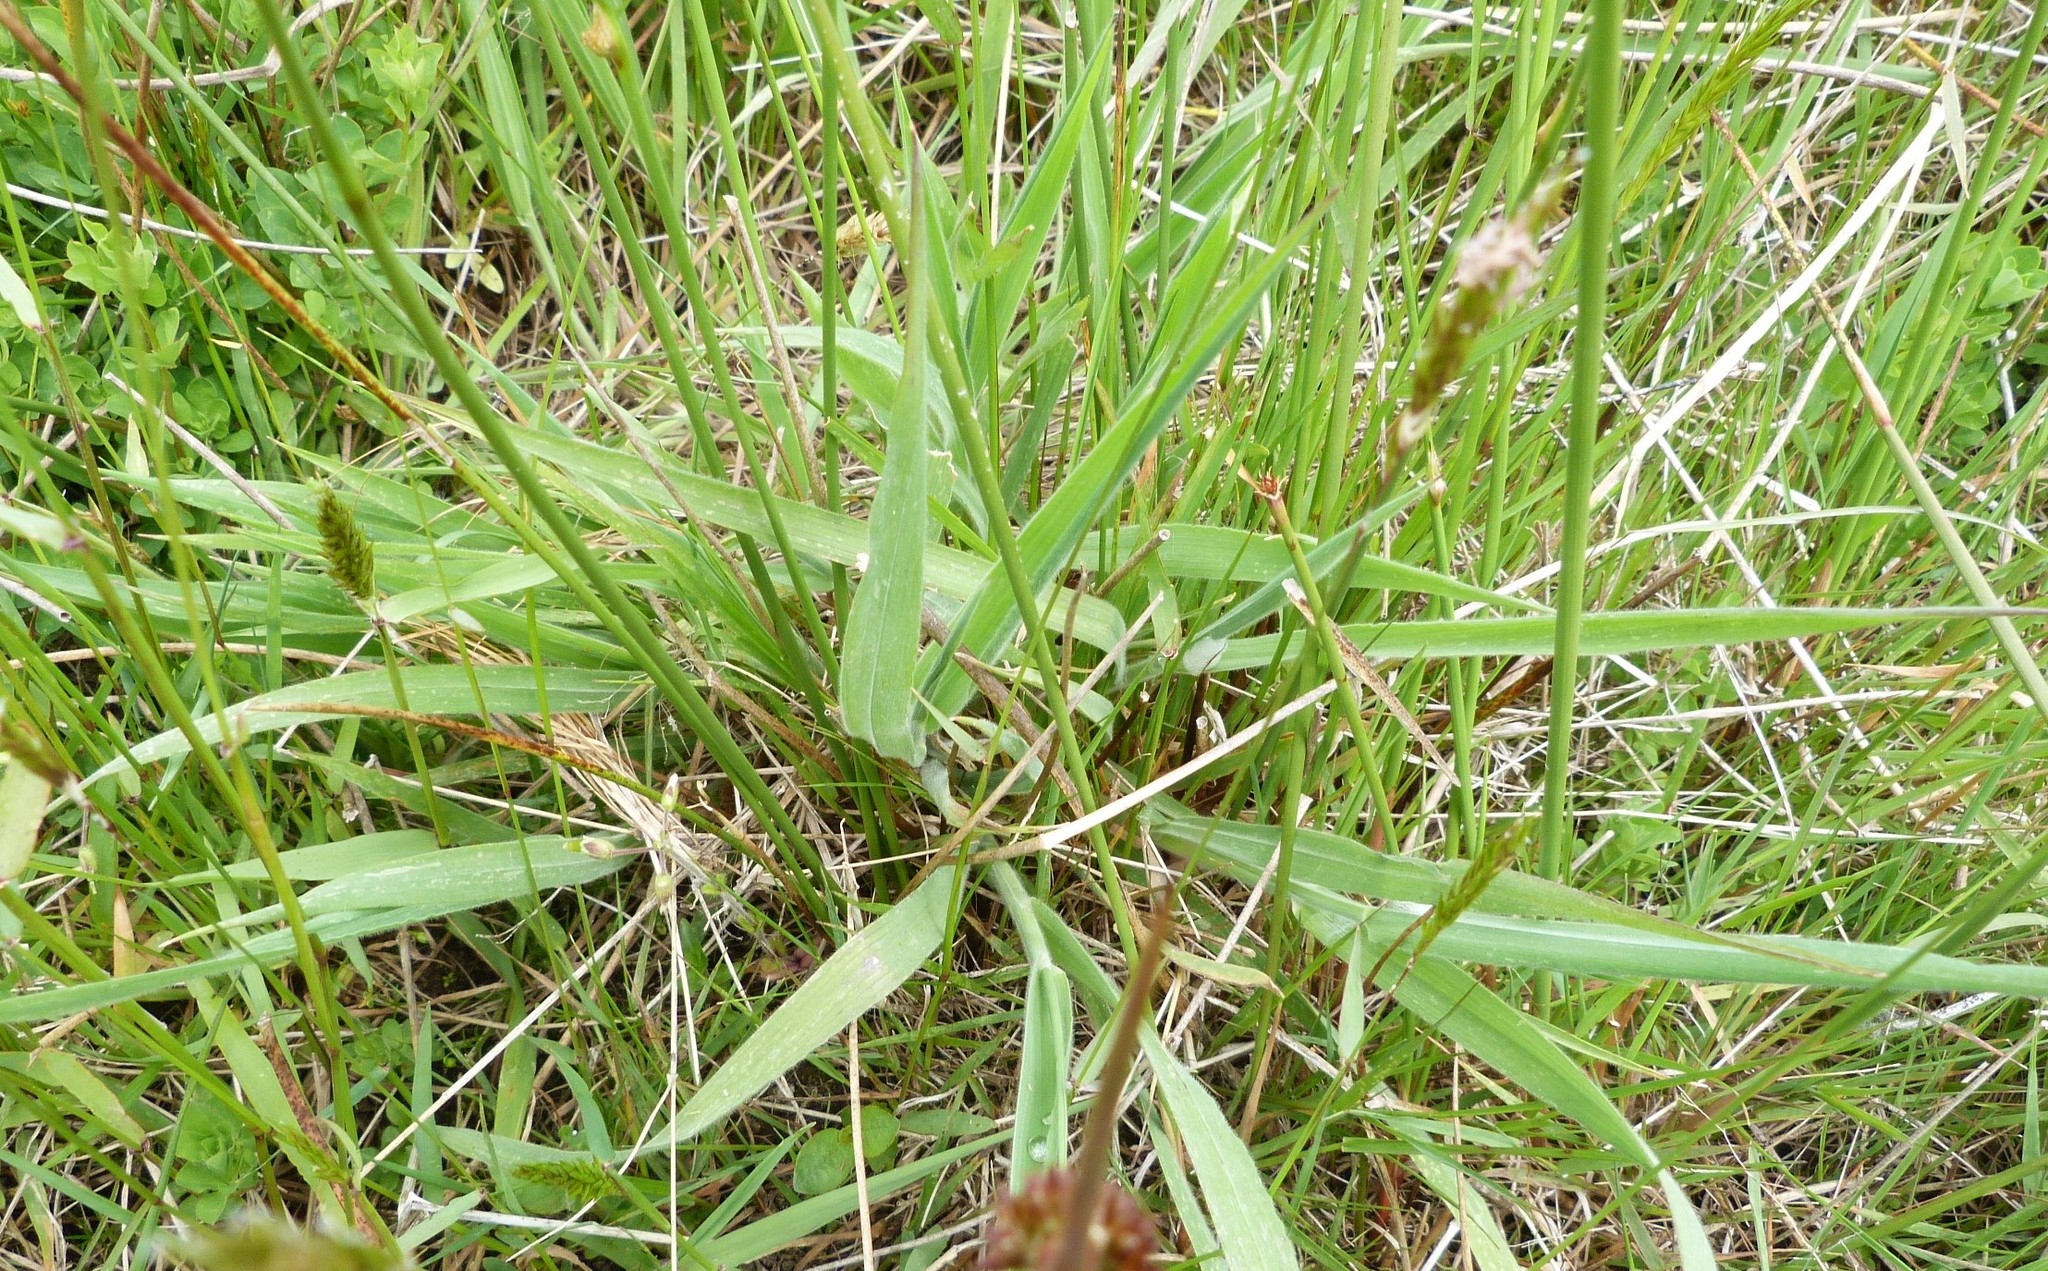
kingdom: Plantae
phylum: Tracheophyta
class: Liliopsida
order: Poales
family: Poaceae
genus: Holcus
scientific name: Holcus lanatus
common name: Yorkshire-fog
